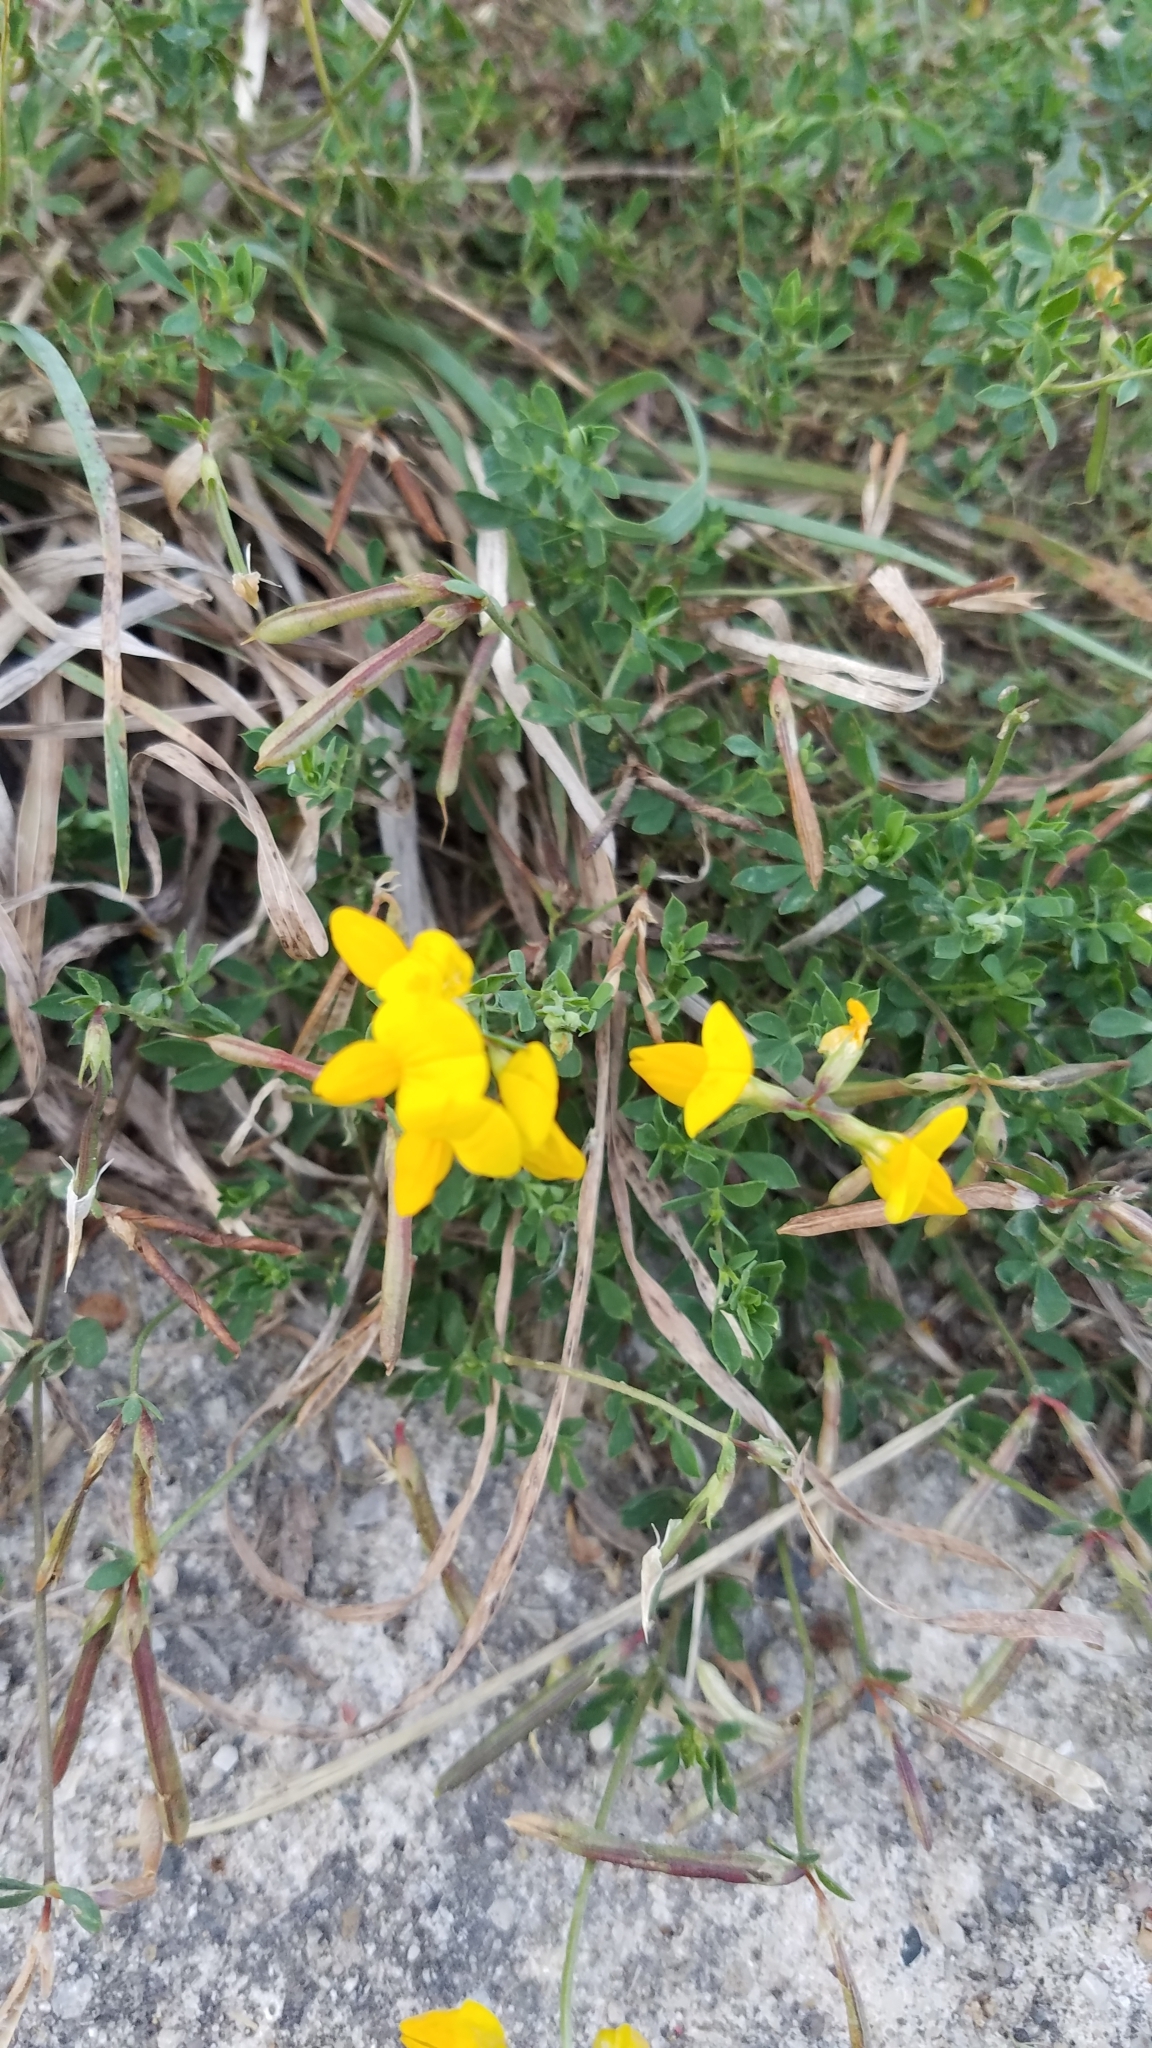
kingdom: Plantae
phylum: Tracheophyta
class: Magnoliopsida
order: Fabales
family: Fabaceae
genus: Lotus
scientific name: Lotus corniculatus
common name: Common bird's-foot-trefoil
